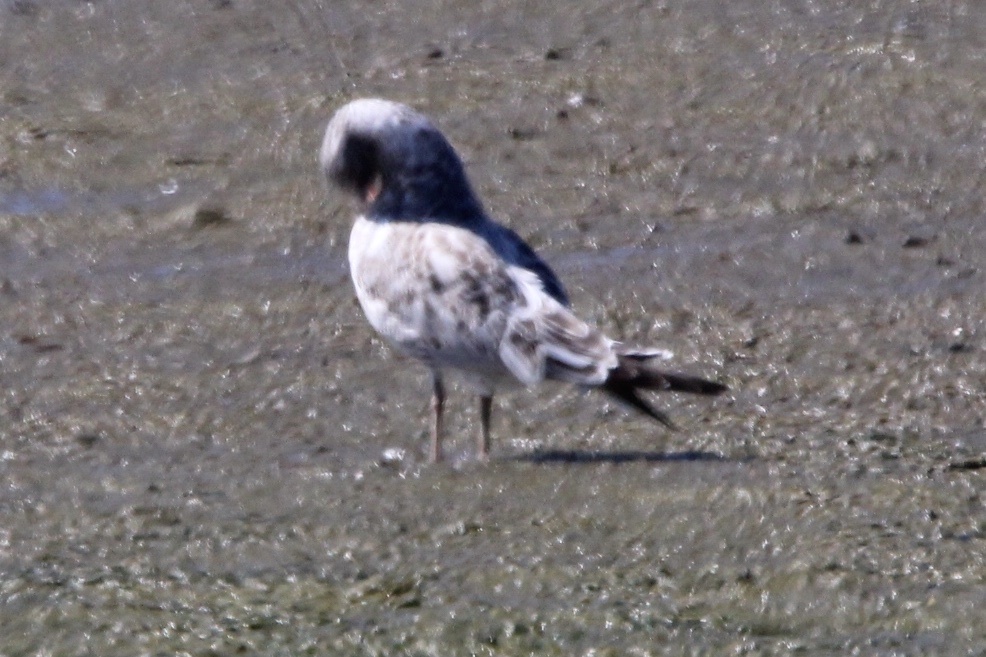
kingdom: Animalia
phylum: Chordata
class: Aves
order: Charadriiformes
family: Laridae
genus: Larus
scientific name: Larus delawarensis
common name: Ring-billed gull
